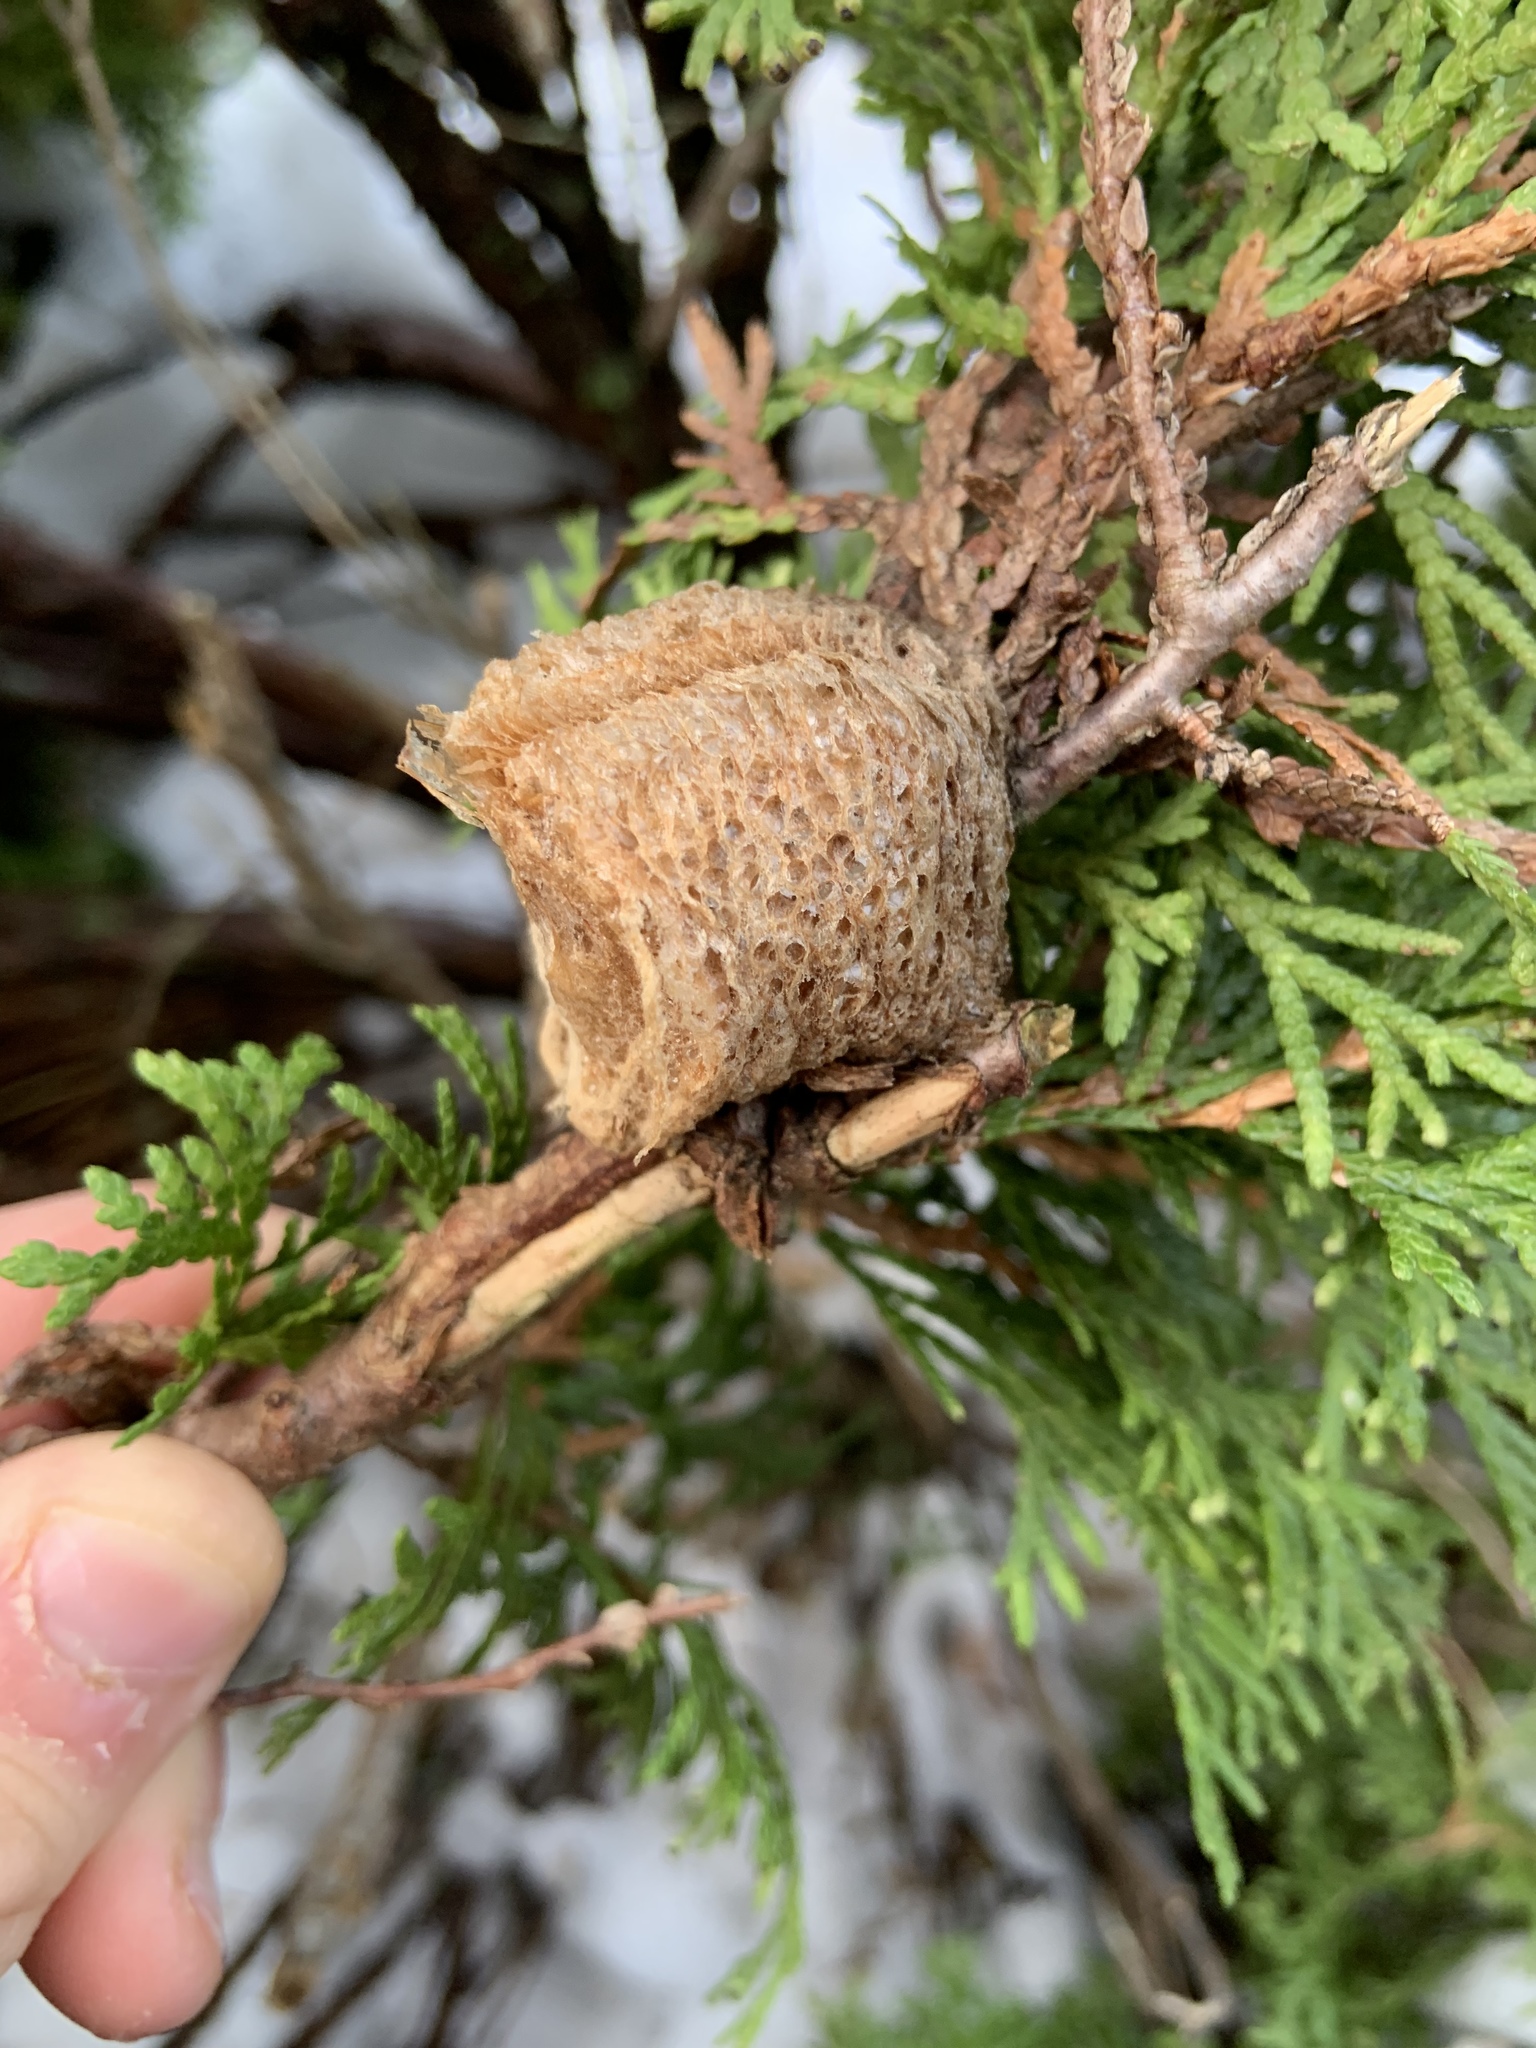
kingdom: Animalia
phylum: Arthropoda
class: Insecta
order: Mantodea
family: Mantidae
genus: Tenodera
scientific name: Tenodera sinensis
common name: Chinese mantis
